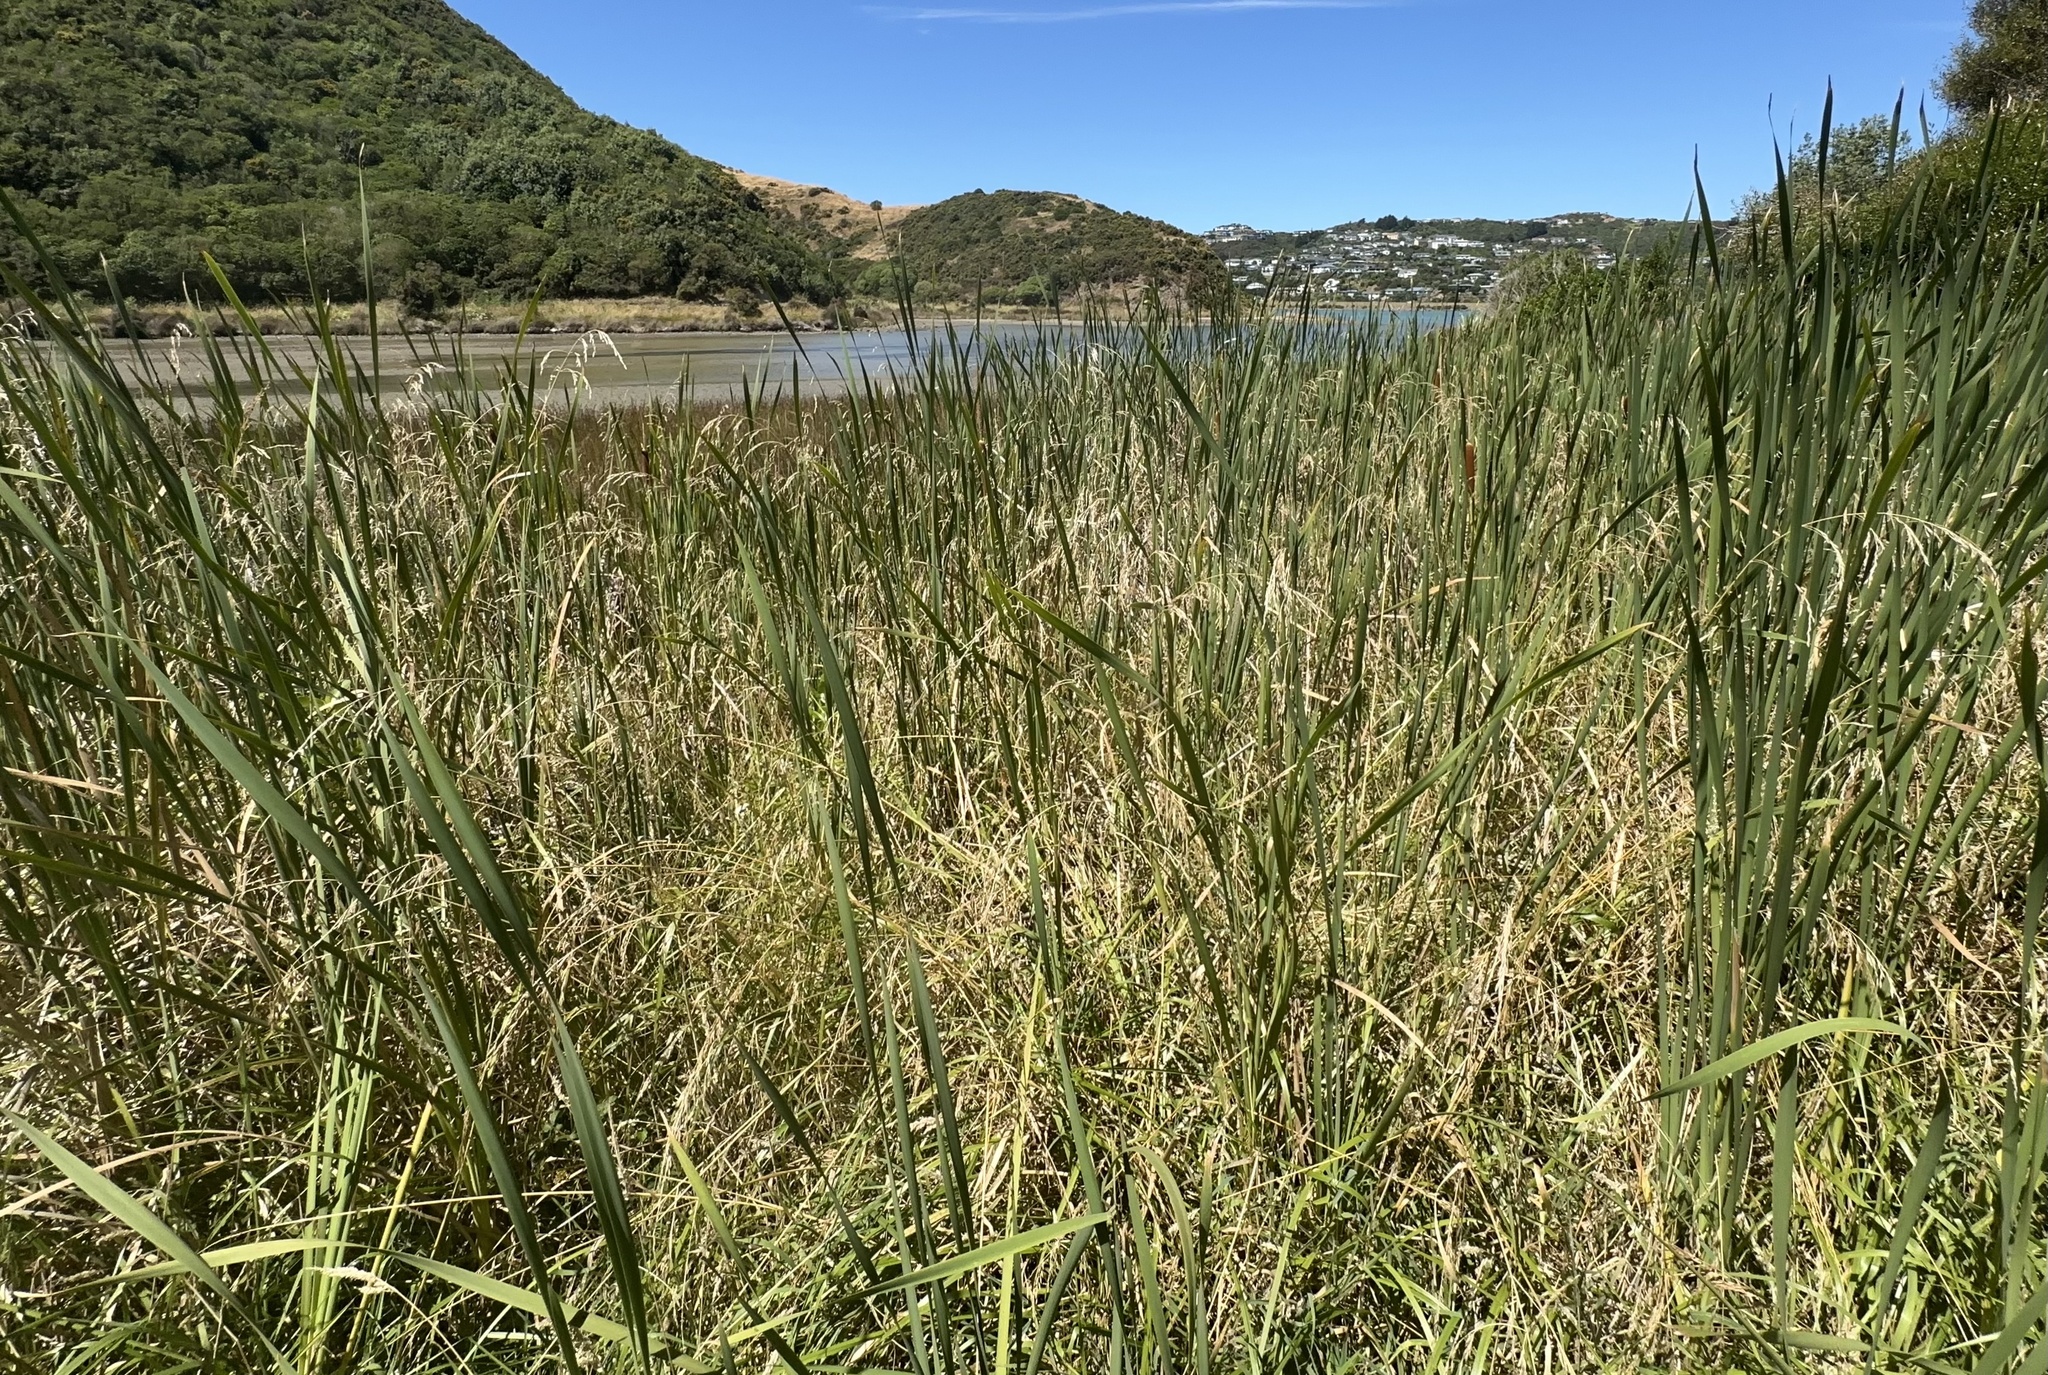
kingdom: Plantae
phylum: Tracheophyta
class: Liliopsida
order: Poales
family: Typhaceae
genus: Typha
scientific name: Typha orientalis
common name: Bullrush
